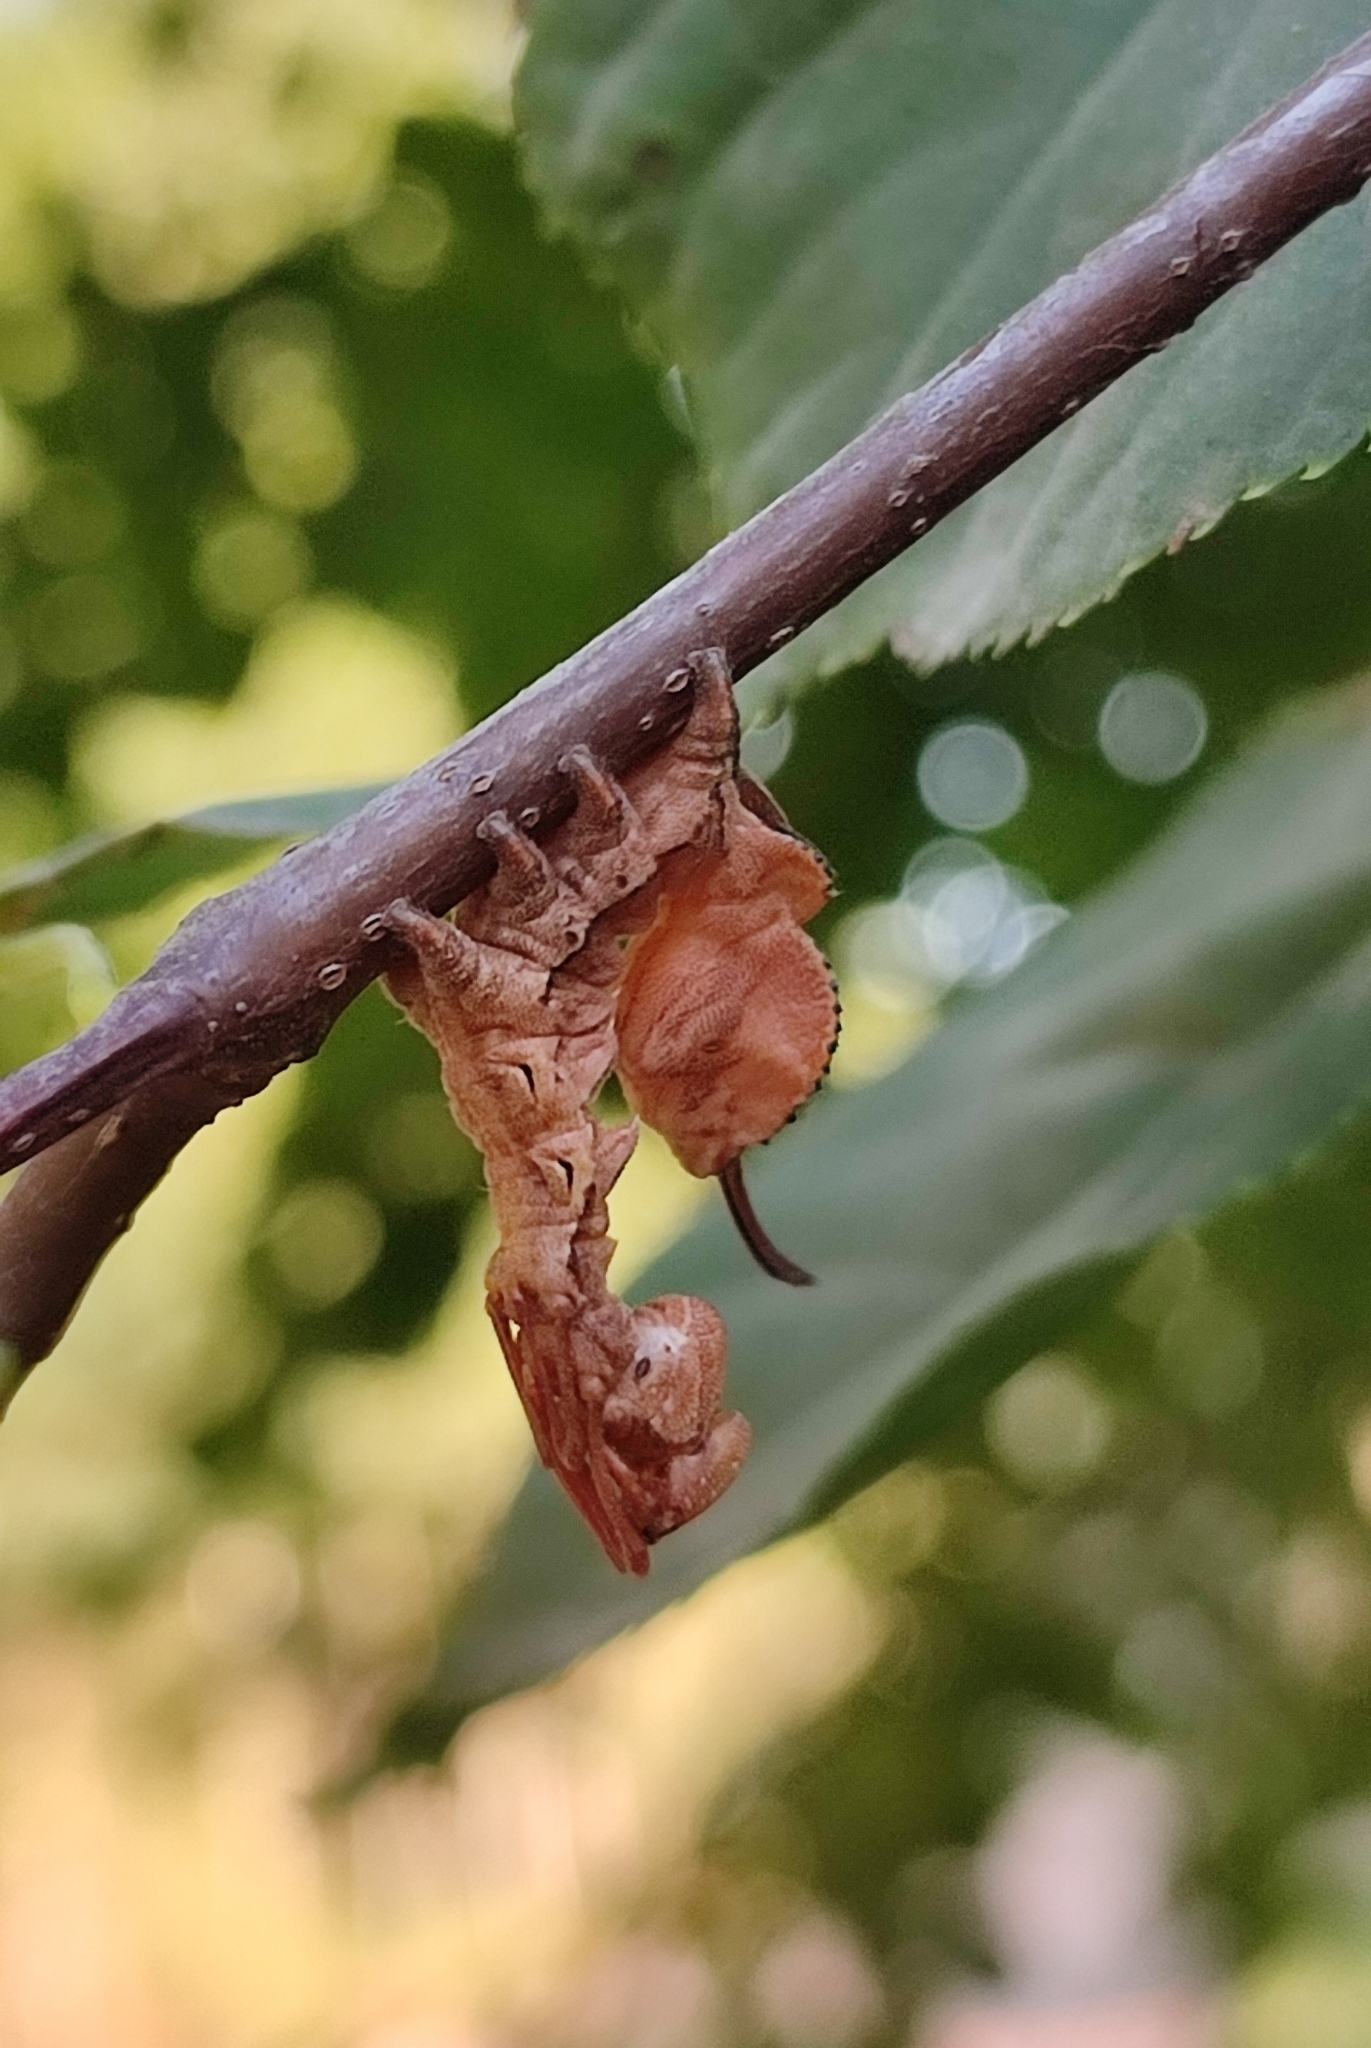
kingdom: Animalia
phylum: Arthropoda
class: Insecta
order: Lepidoptera
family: Notodontidae
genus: Stauropus
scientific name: Stauropus fagi
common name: Lobster moth
